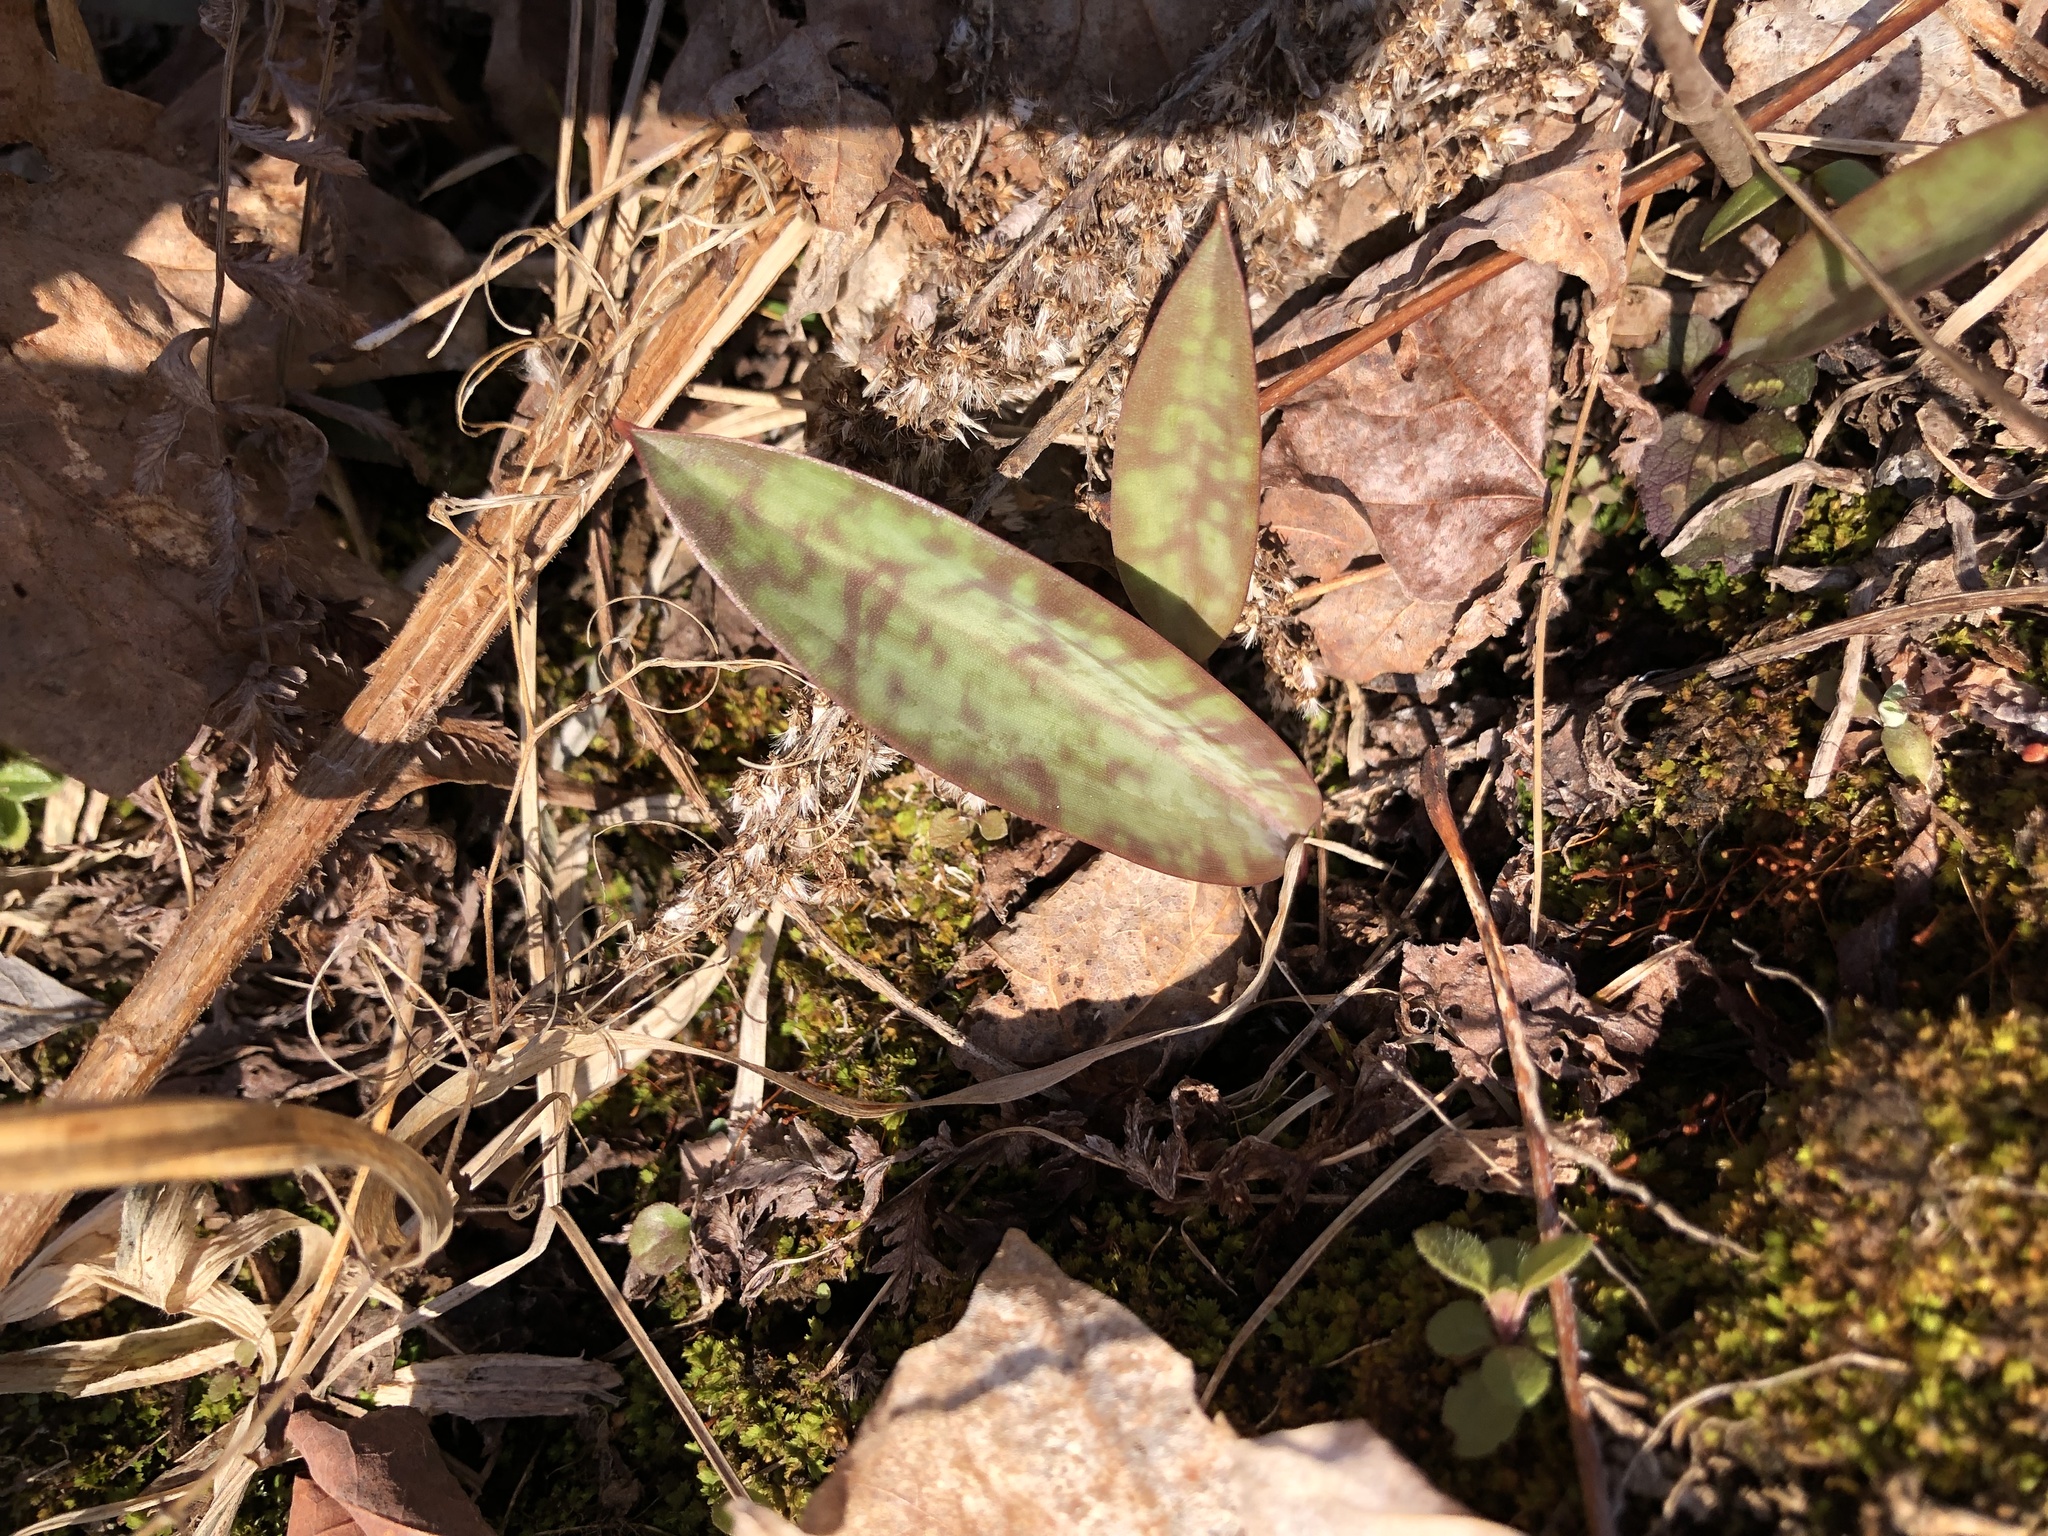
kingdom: Plantae
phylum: Tracheophyta
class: Liliopsida
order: Liliales
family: Liliaceae
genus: Erythronium
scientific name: Erythronium americanum
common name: Yellow adder's-tongue
